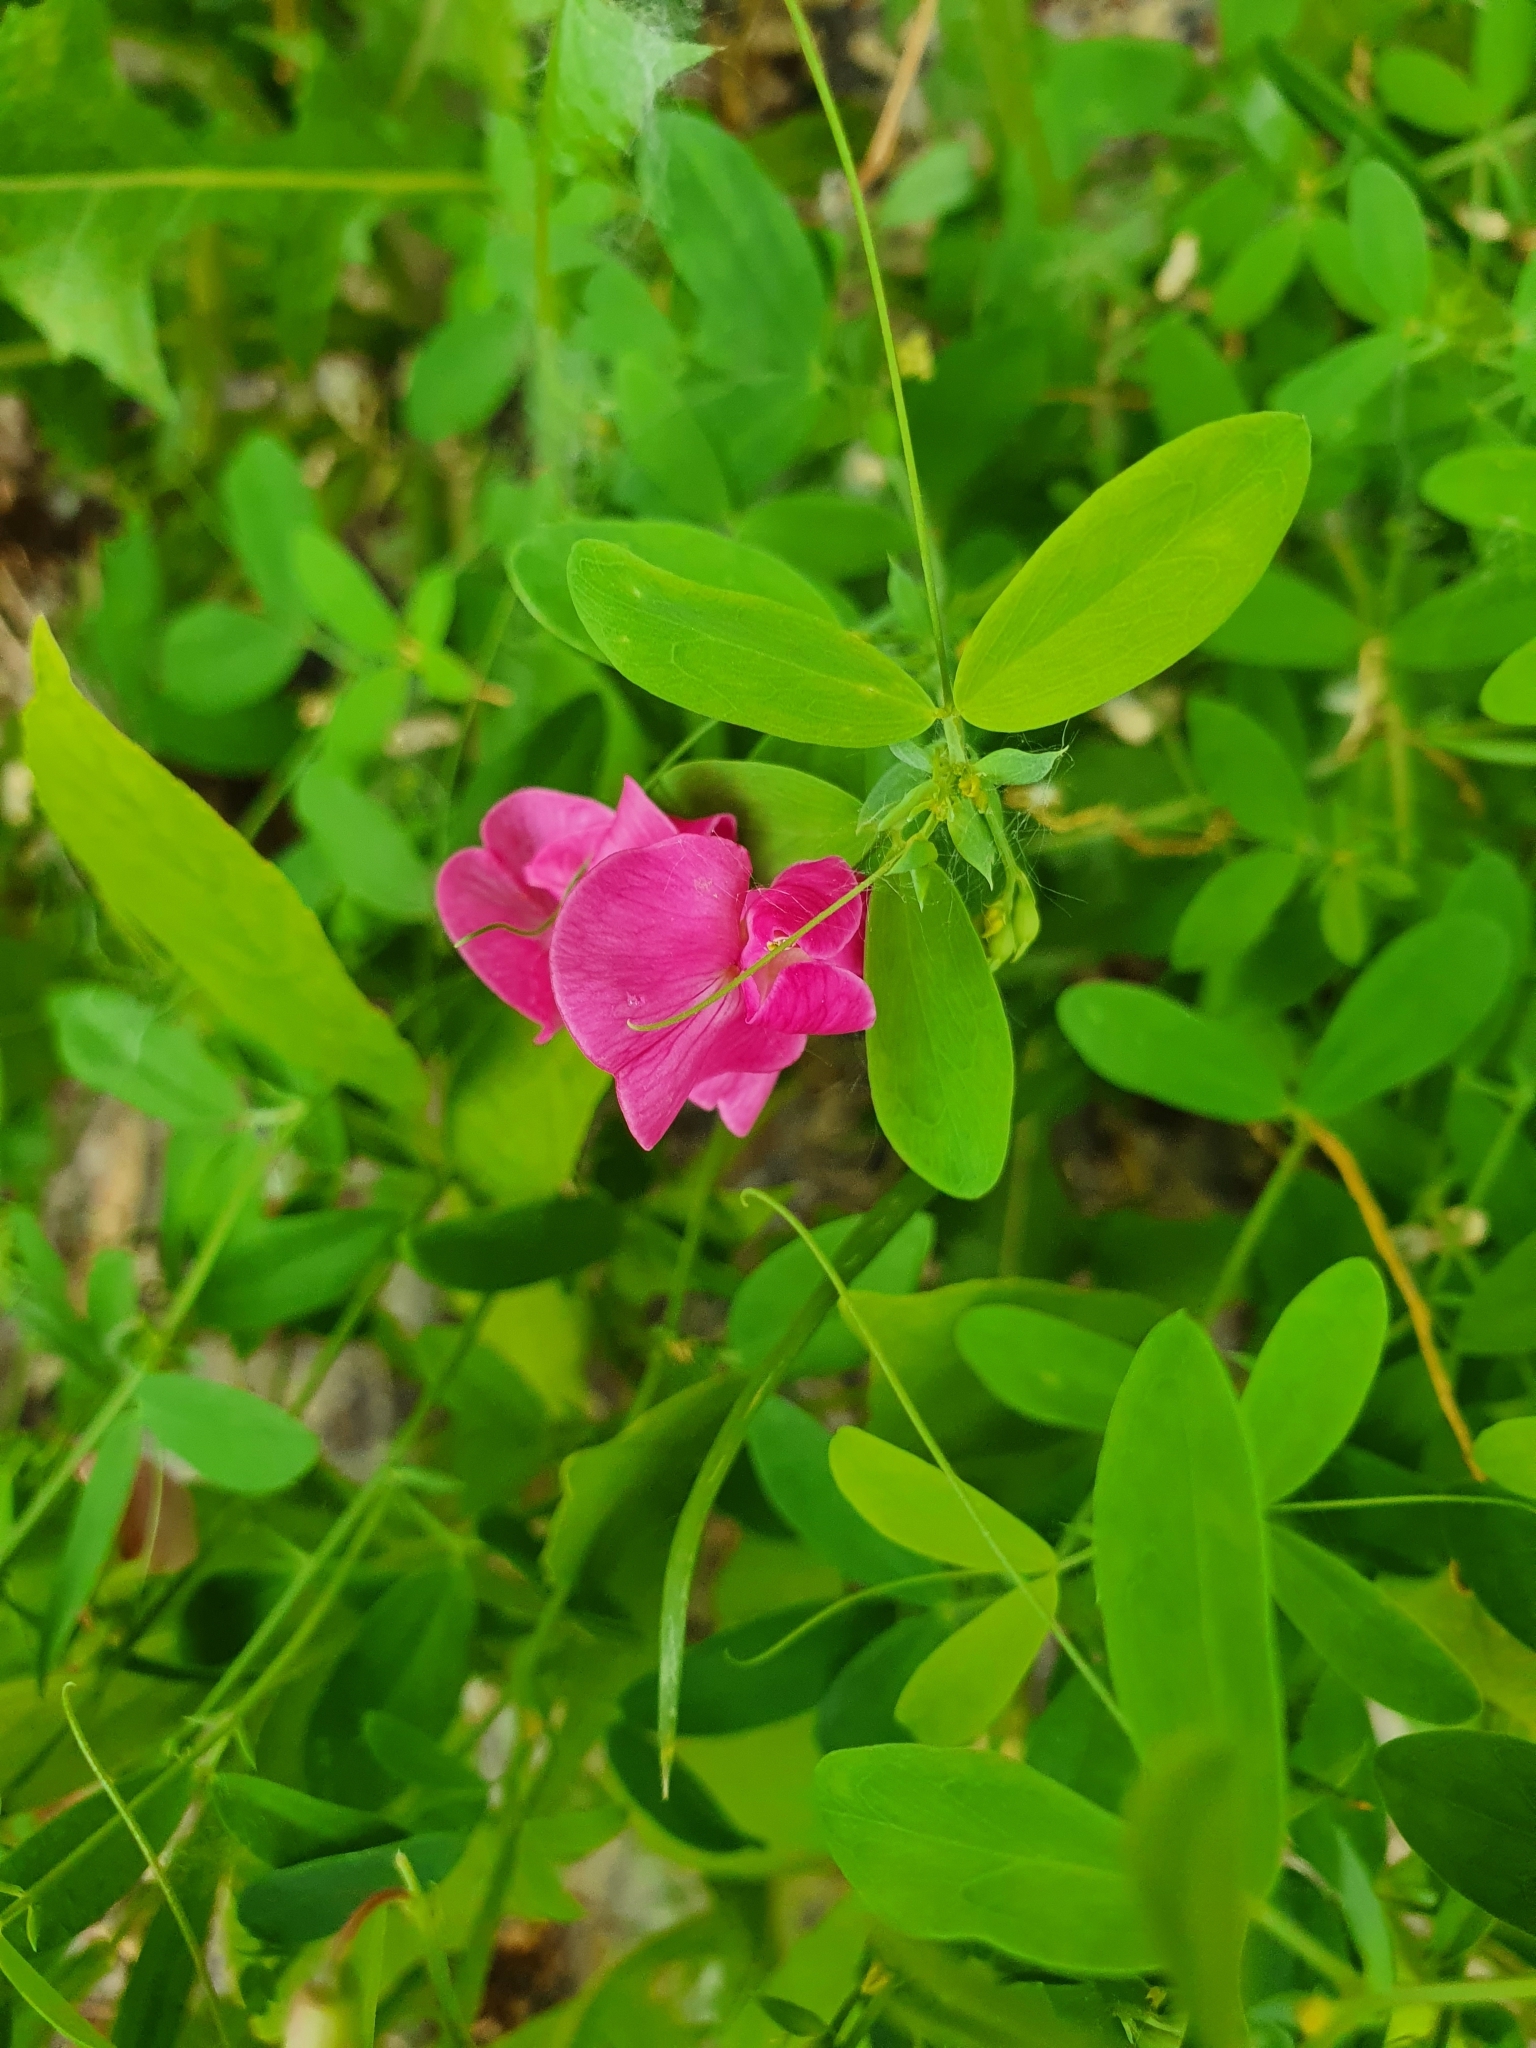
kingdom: Plantae
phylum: Tracheophyta
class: Magnoliopsida
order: Fabales
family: Fabaceae
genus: Lathyrus
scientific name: Lathyrus tuberosus
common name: Tuberous pea
